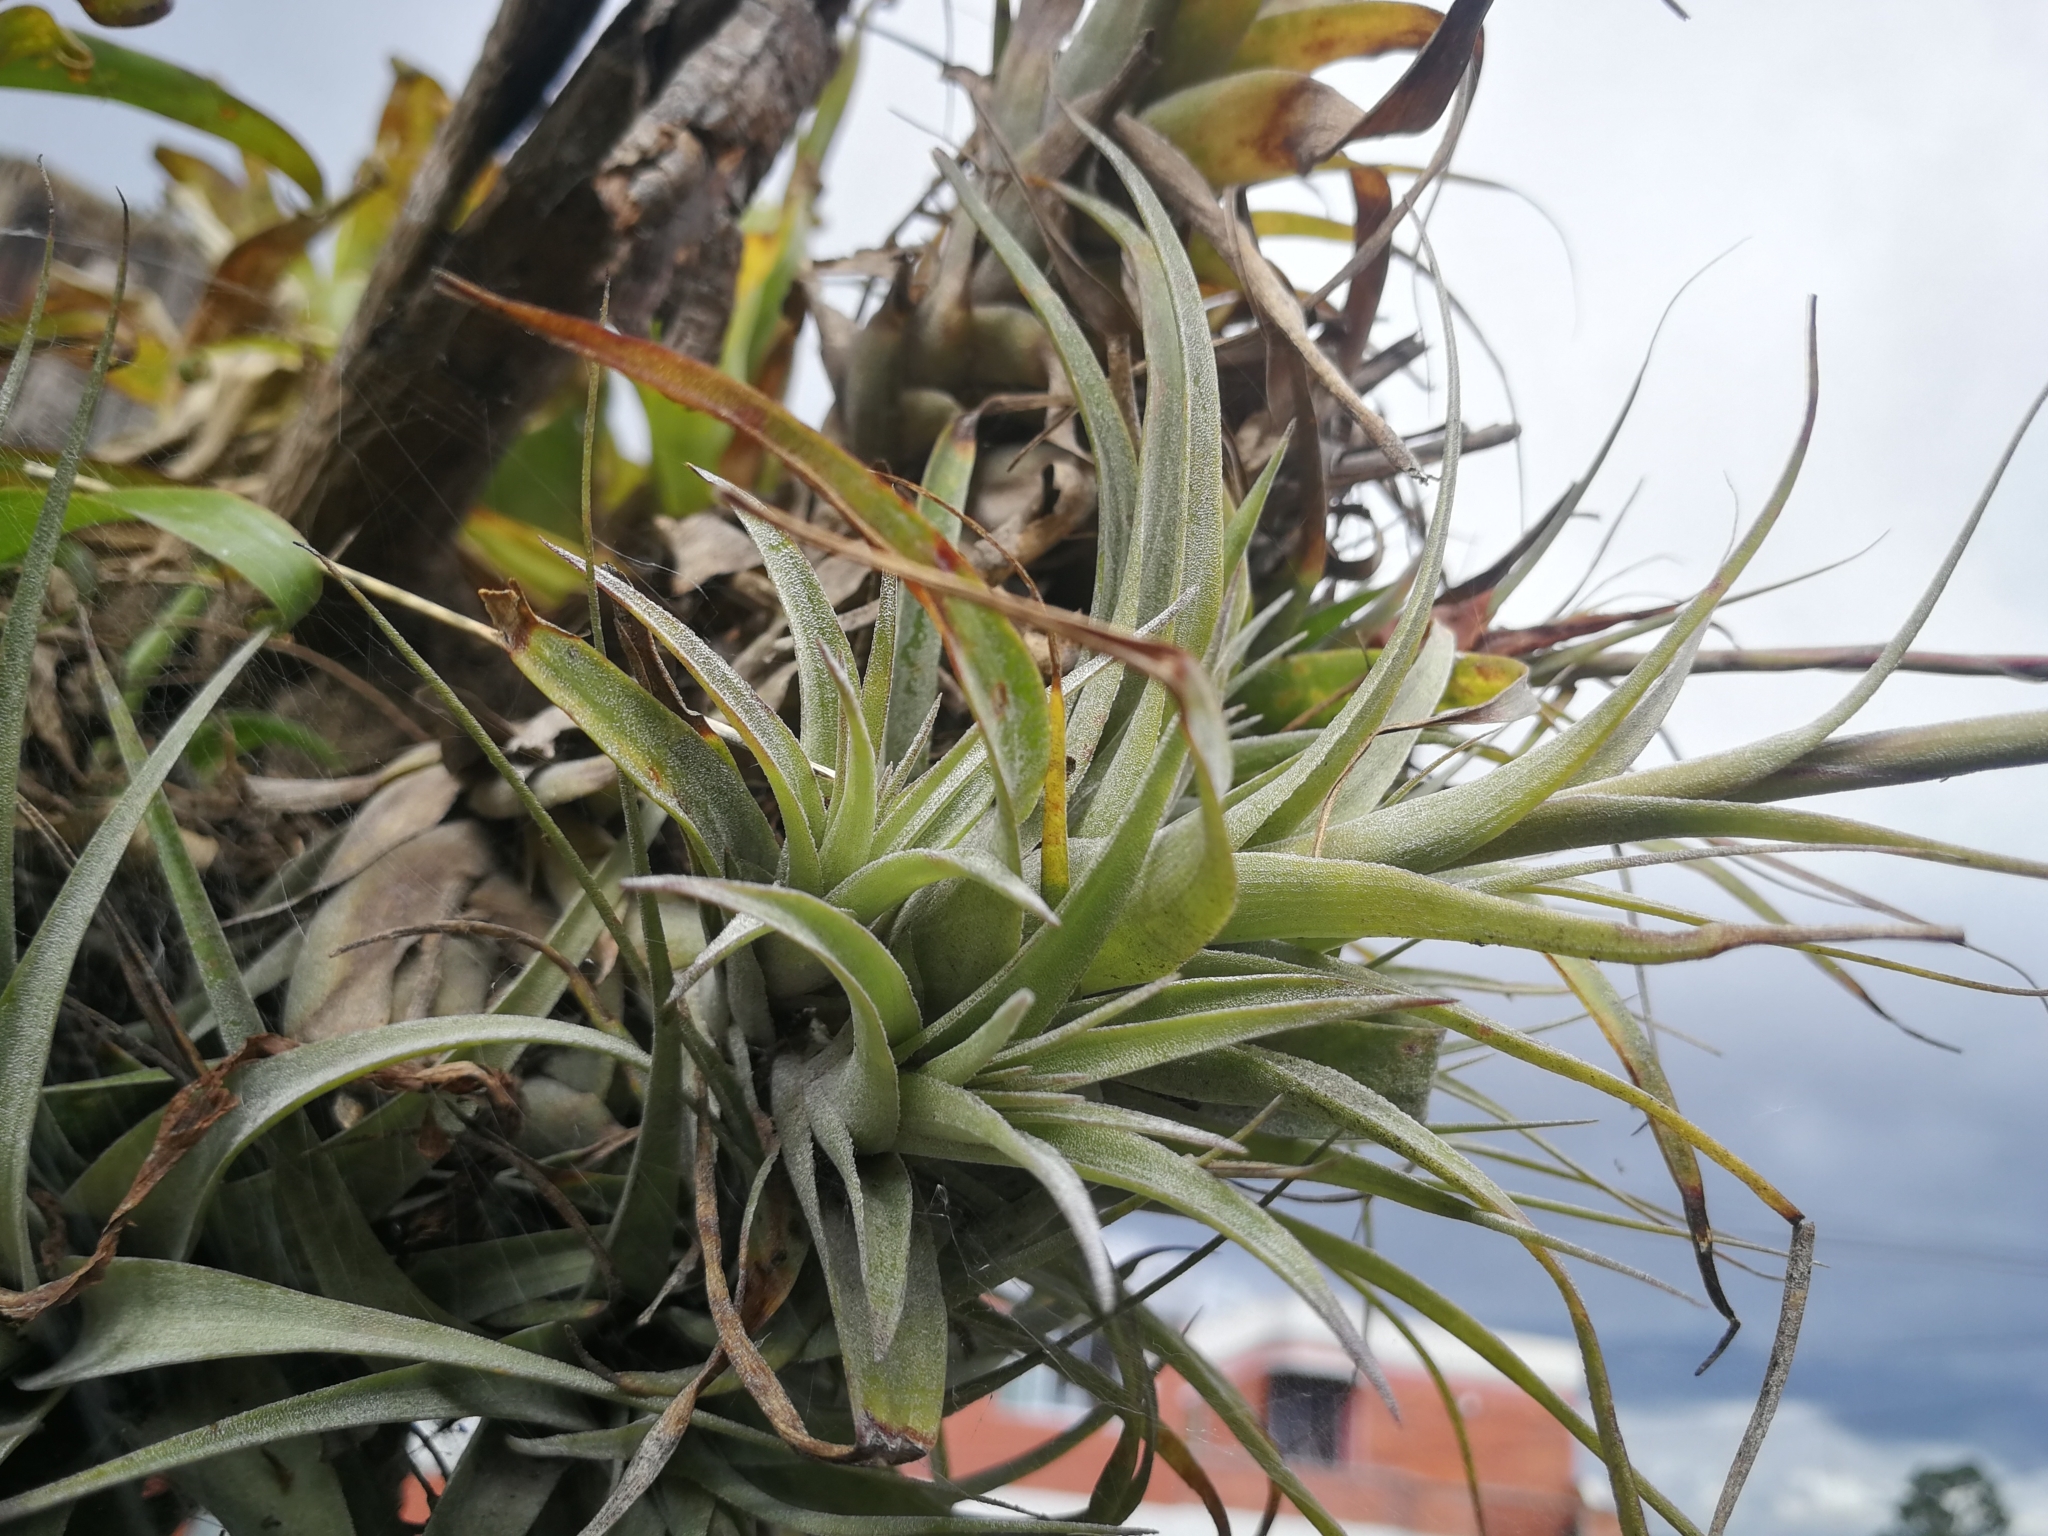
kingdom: Plantae
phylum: Tracheophyta
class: Liliopsida
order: Poales
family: Bromeliaceae
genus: Tillandsia
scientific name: Tillandsia incarnata
